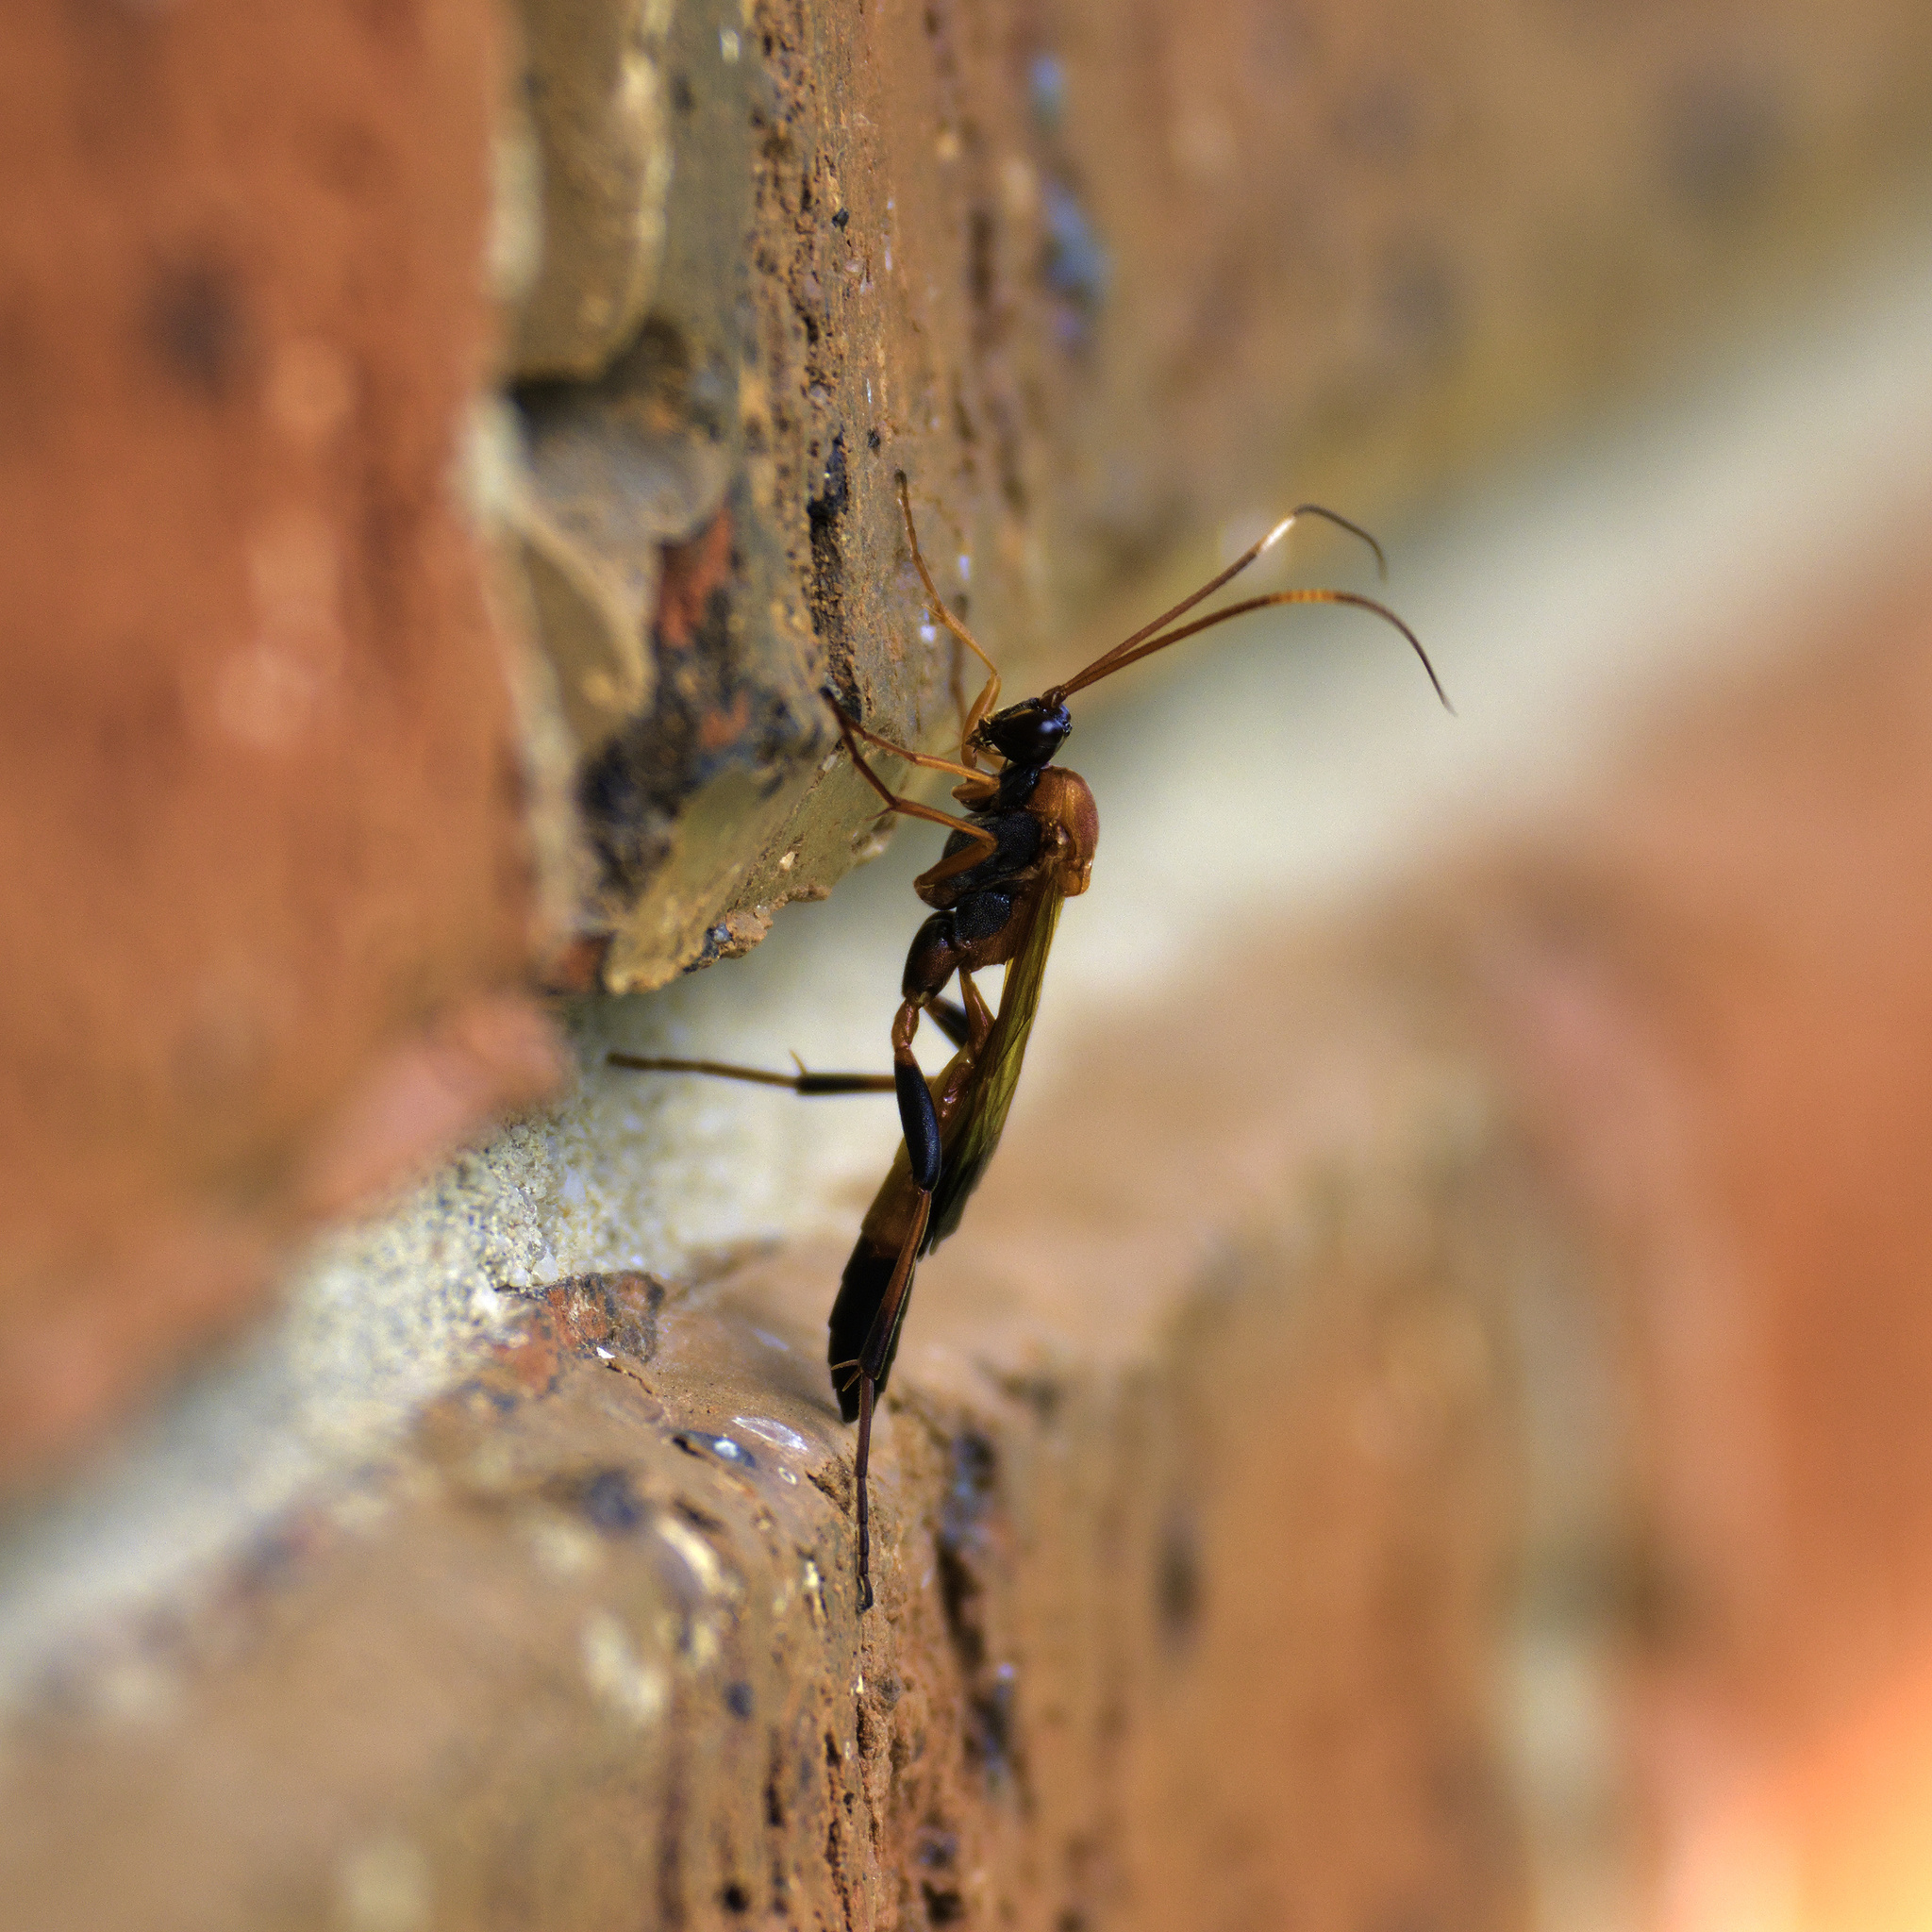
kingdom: Animalia
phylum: Arthropoda
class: Insecta
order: Hymenoptera
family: Ichneumonidae
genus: Ctenochares
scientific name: Ctenochares bicolorus
